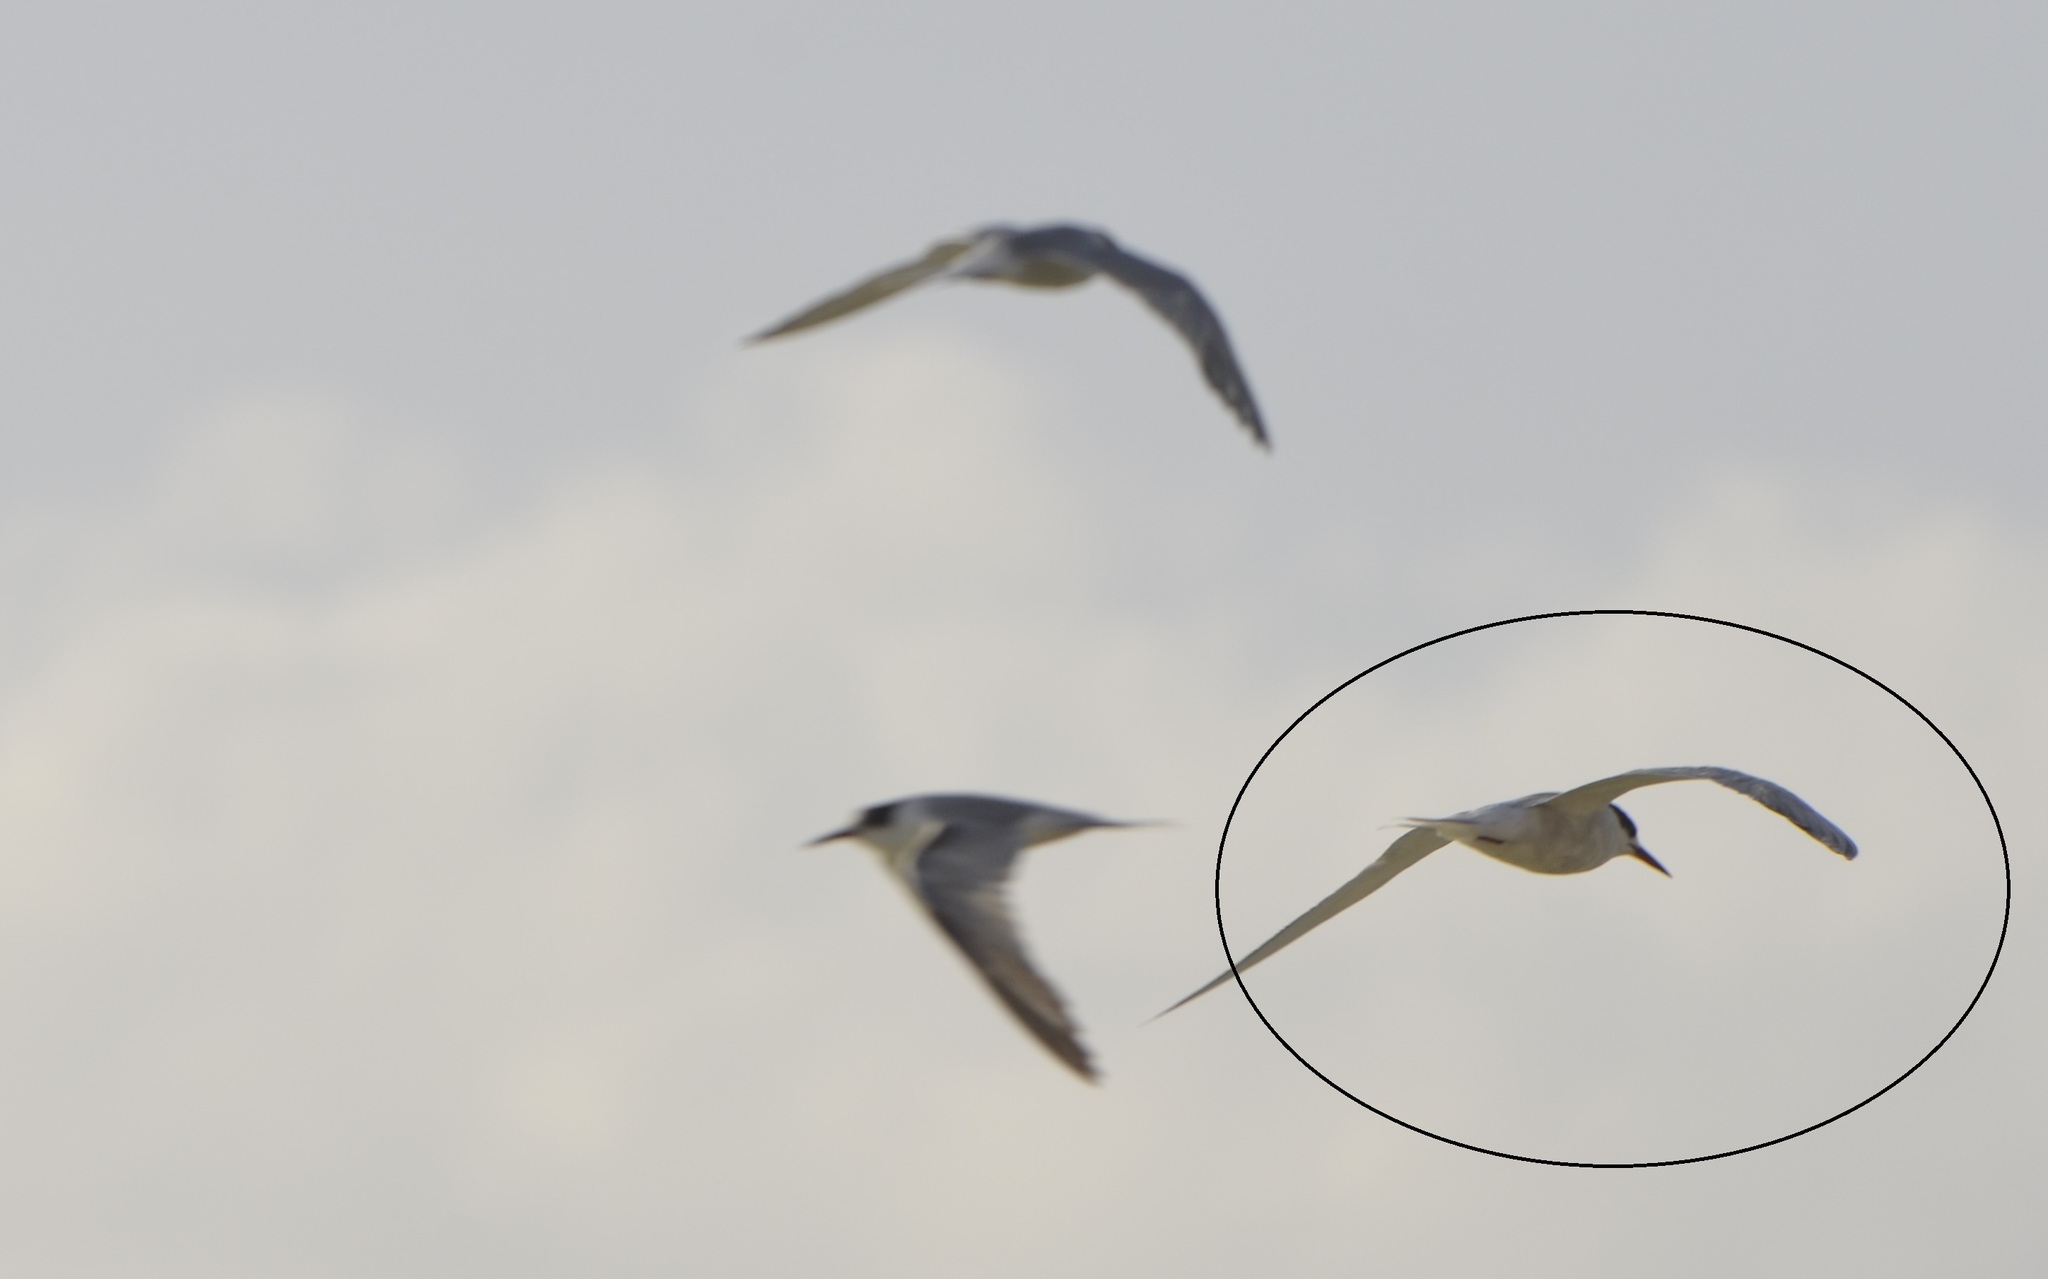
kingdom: Animalia
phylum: Chordata
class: Aves
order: Charadriiformes
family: Laridae
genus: Sterna
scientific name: Sterna hirundo
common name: Common tern
